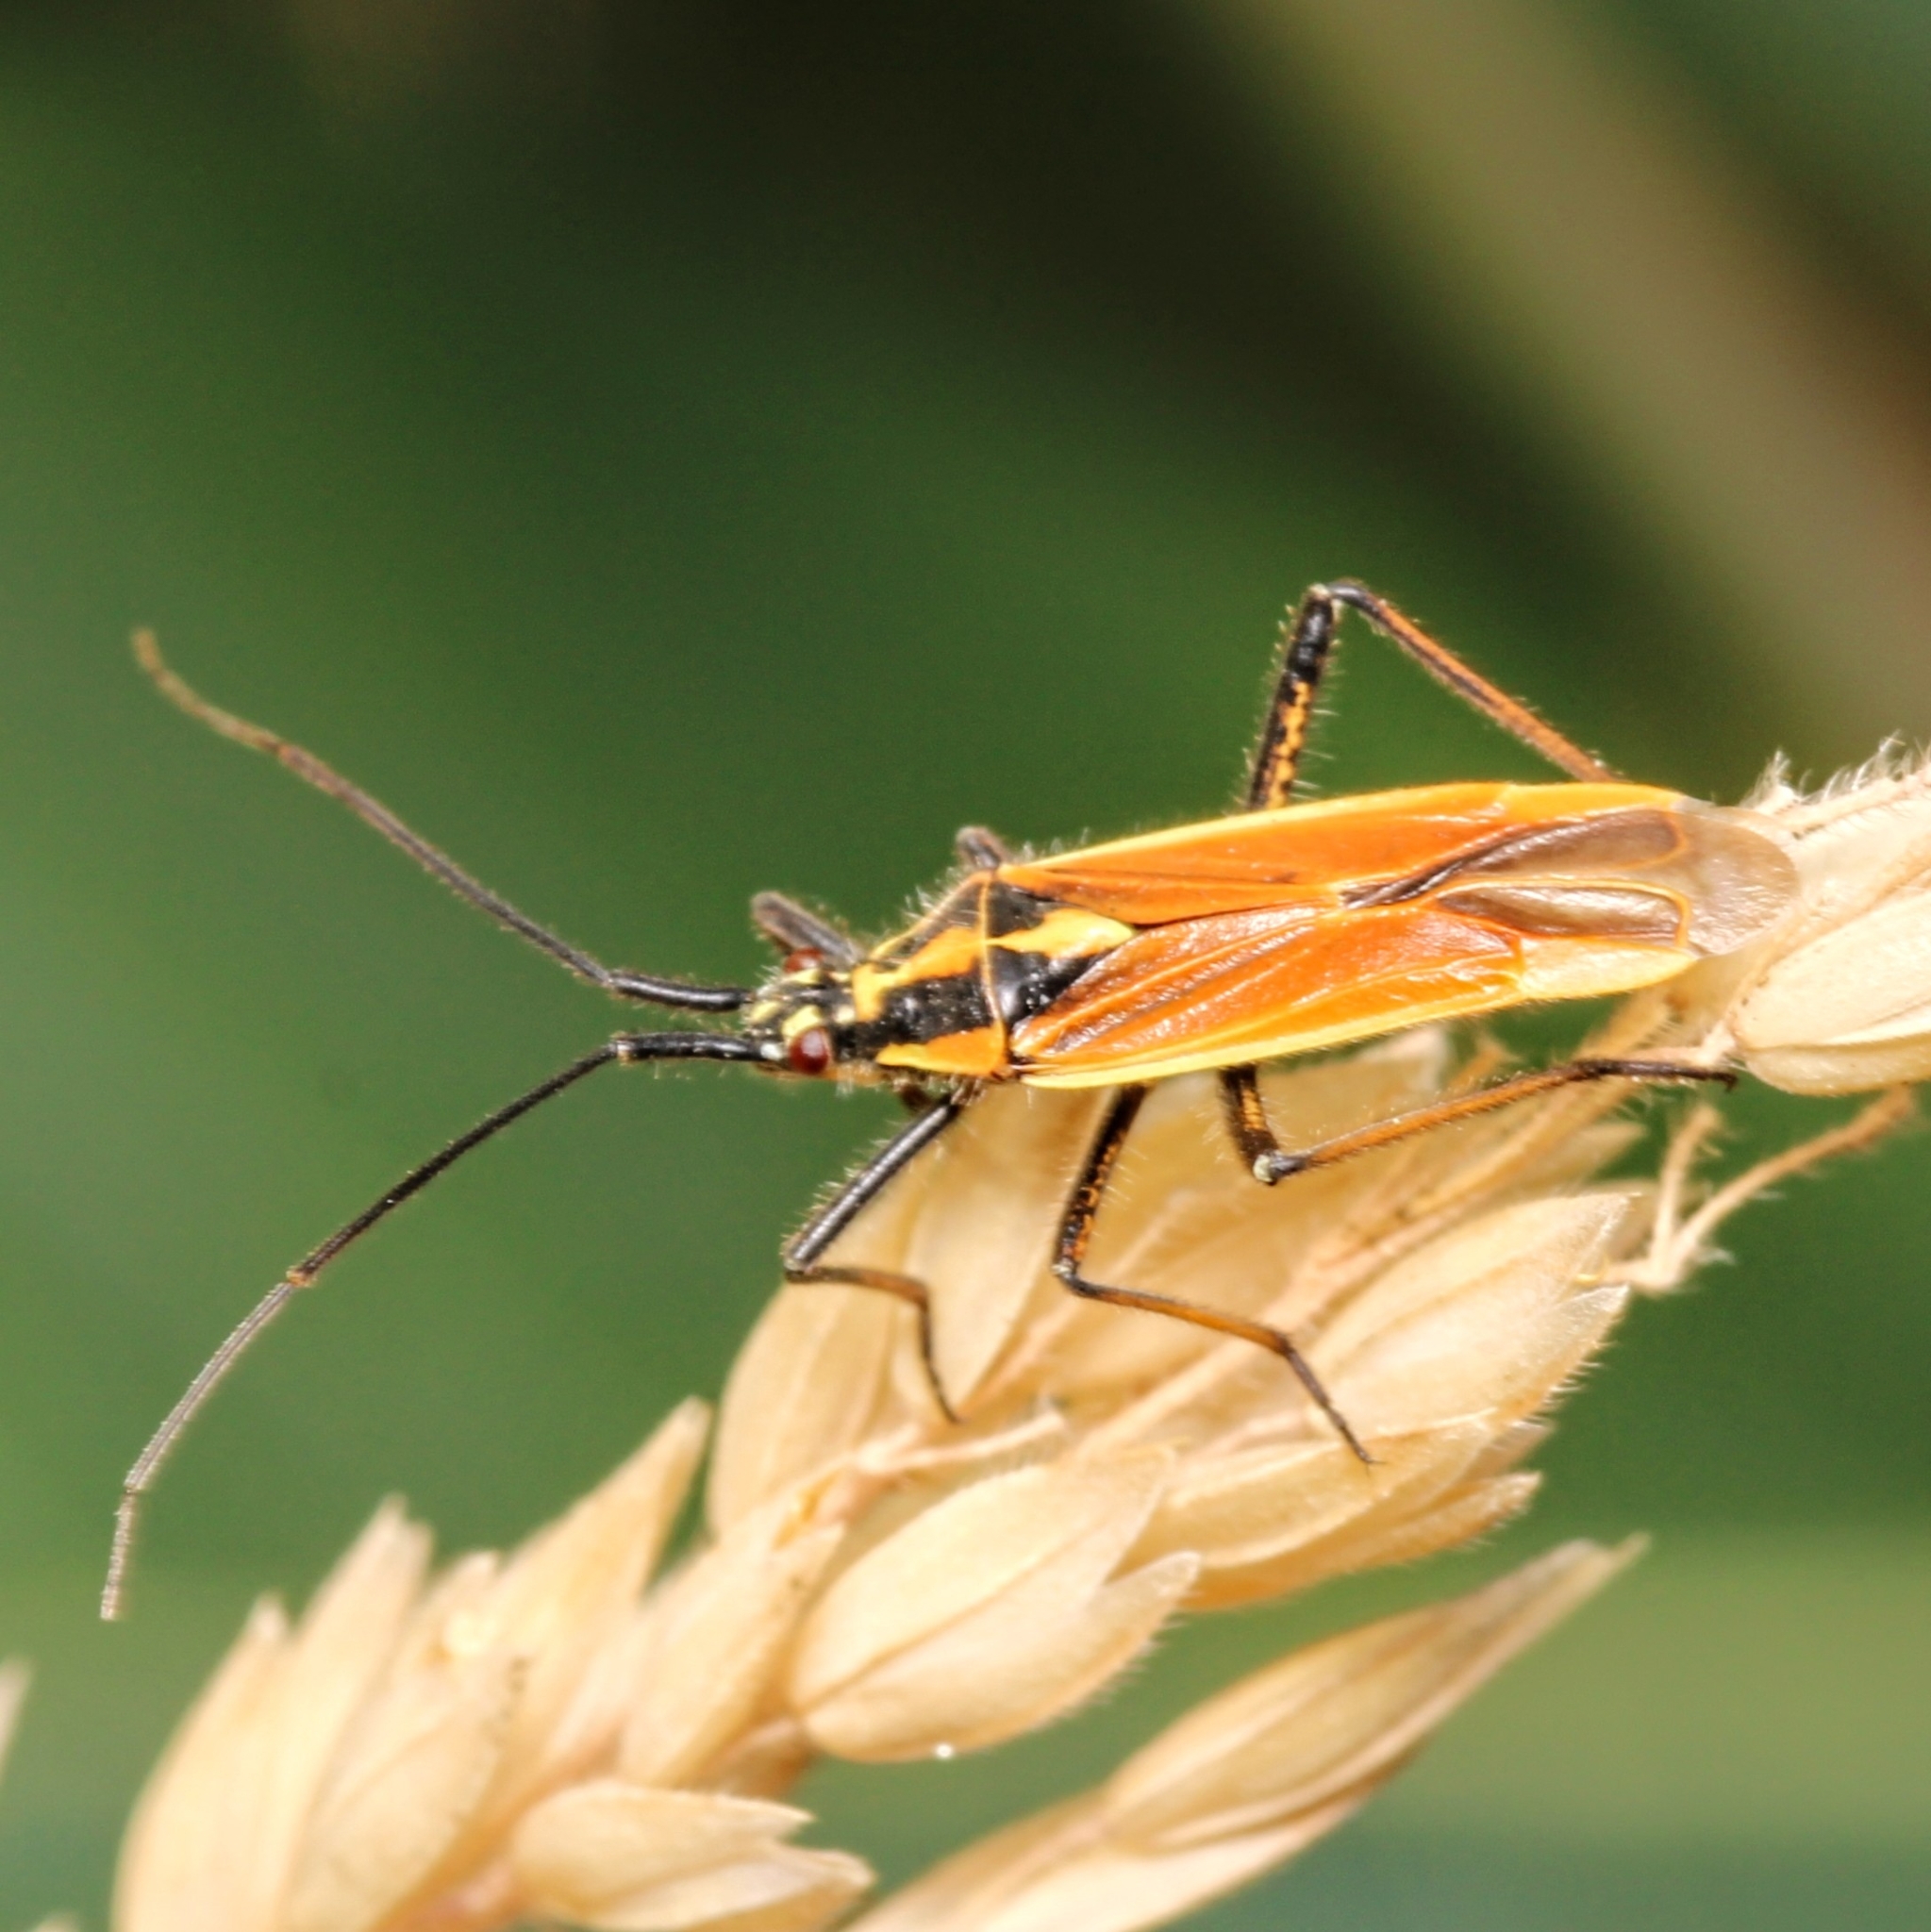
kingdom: Animalia
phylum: Arthropoda
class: Insecta
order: Hemiptera
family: Miridae
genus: Leptopterna
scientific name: Leptopterna dolabrata
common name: Meadow plant bug
